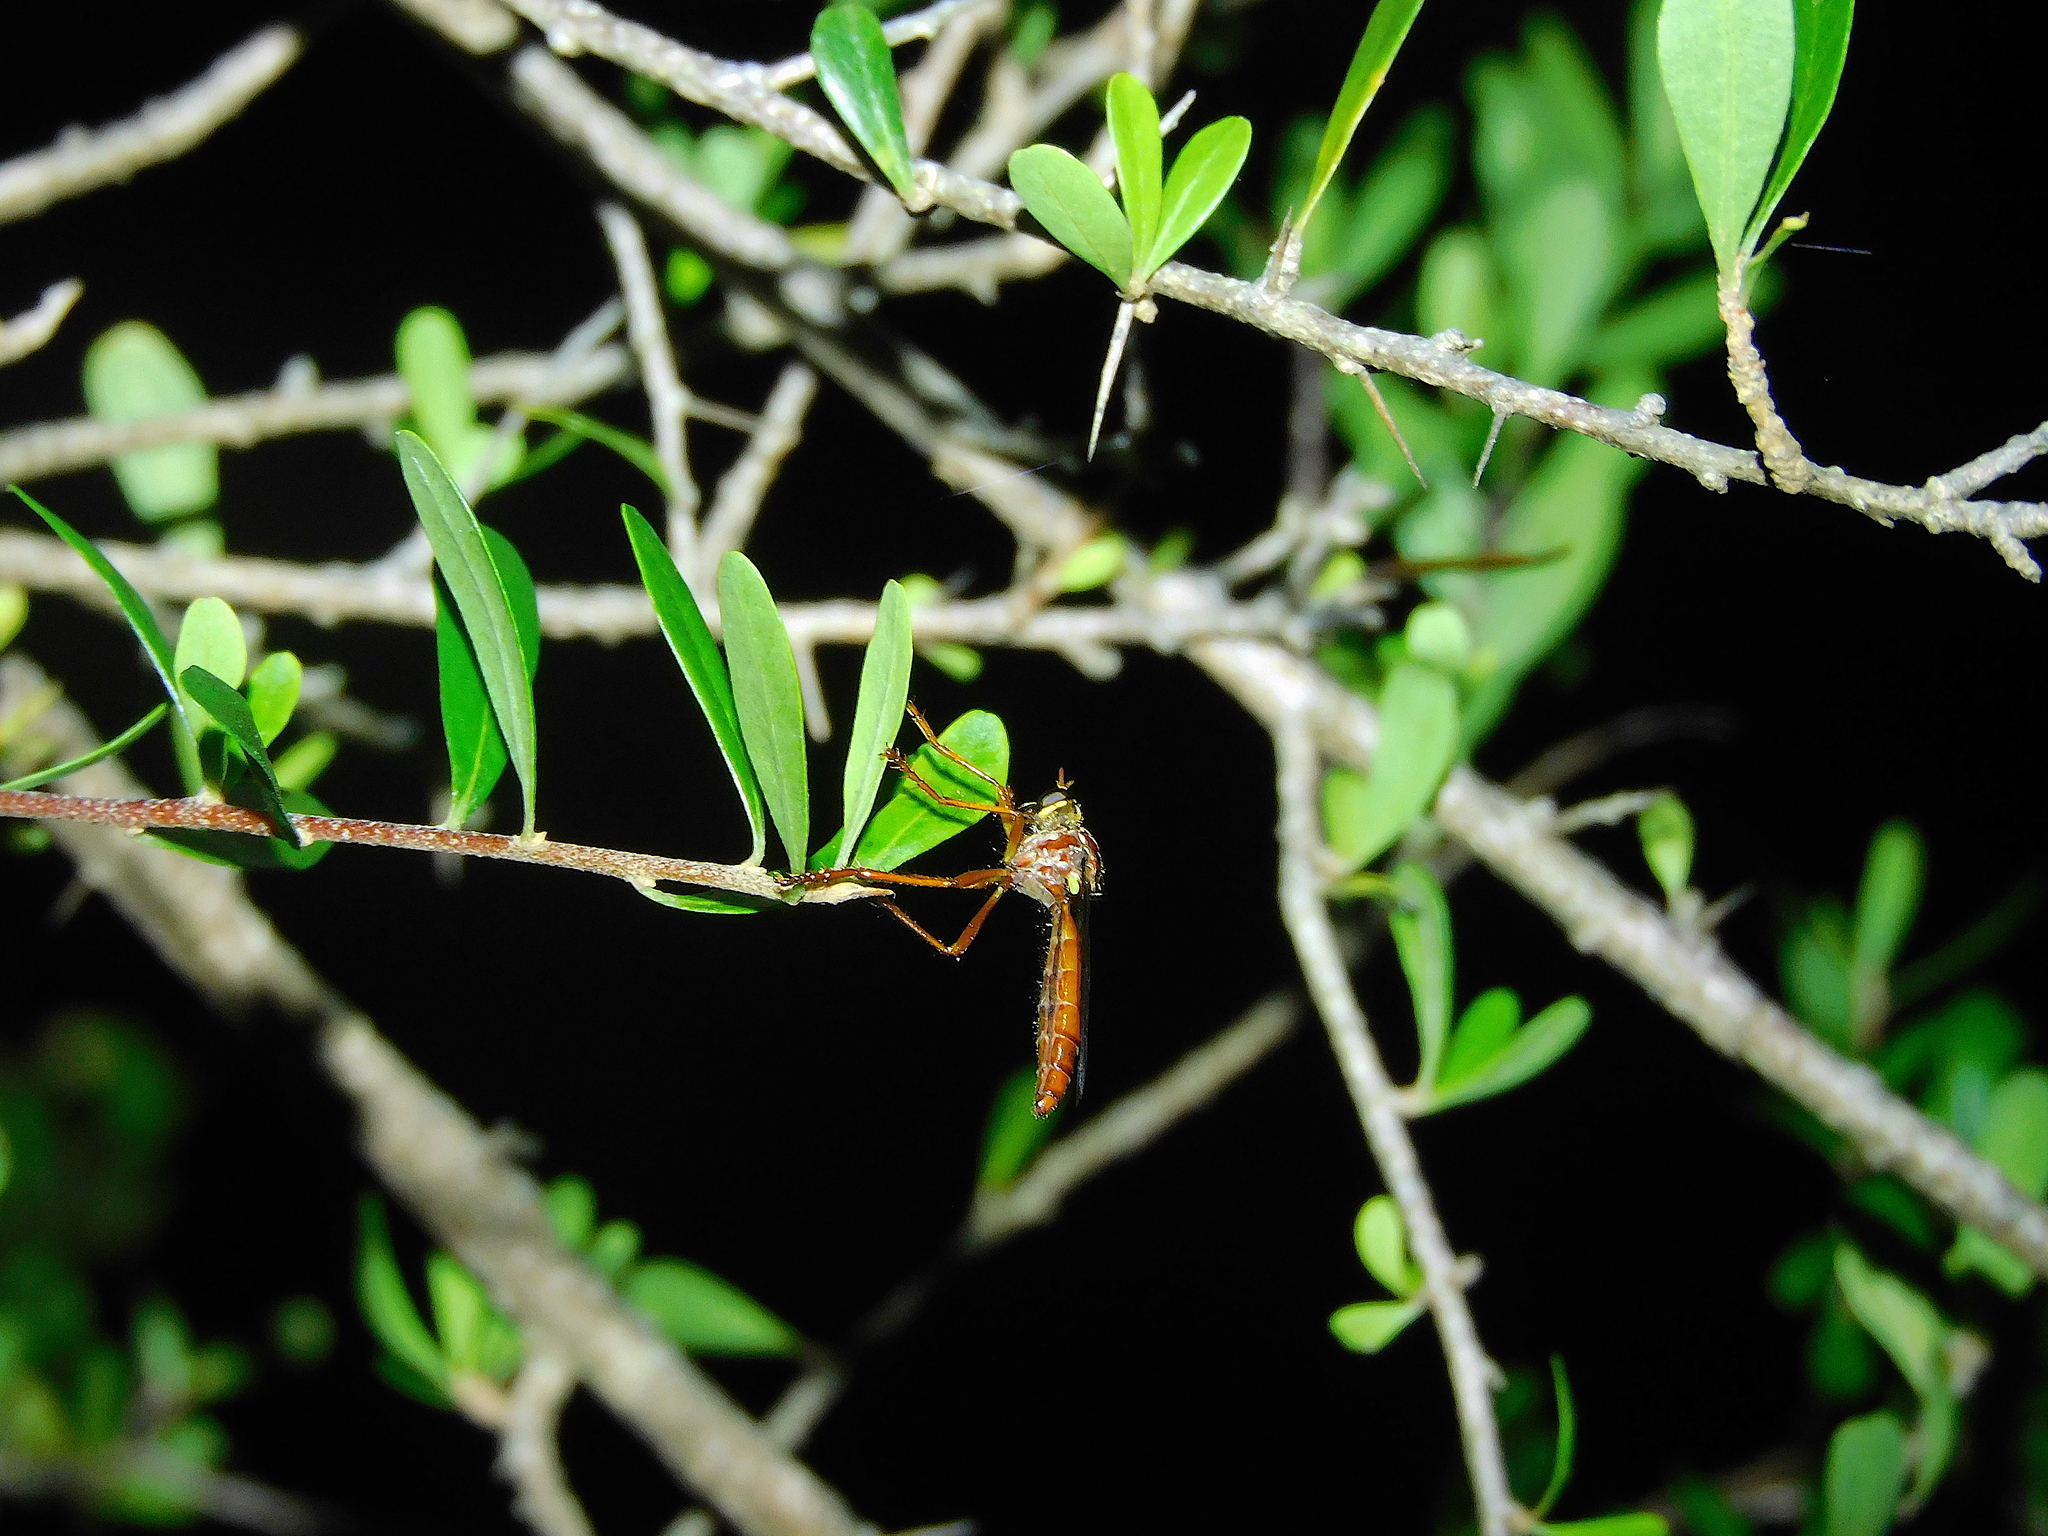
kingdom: Animalia
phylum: Arthropoda
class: Insecta
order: Diptera
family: Asilidae
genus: Humorolethalis
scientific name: Humorolethalis sergius
